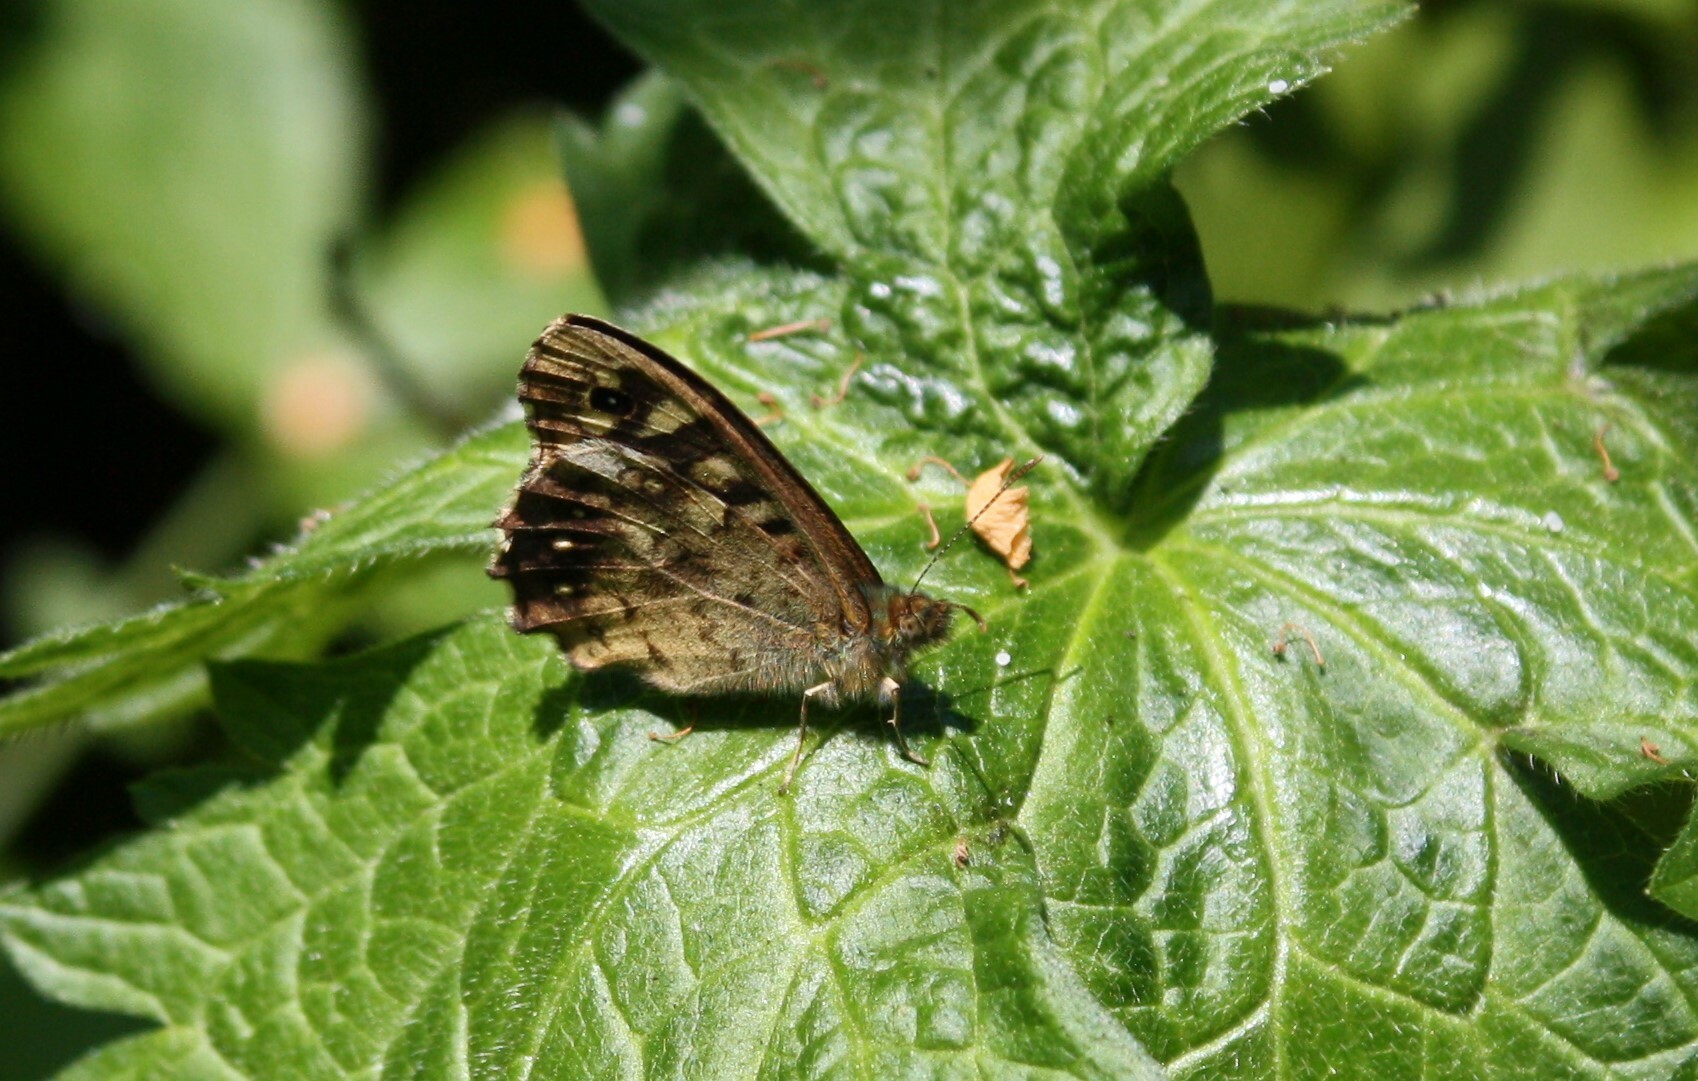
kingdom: Animalia
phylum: Arthropoda
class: Insecta
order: Lepidoptera
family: Nymphalidae
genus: Pararge
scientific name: Pararge aegeria
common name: Speckled wood
